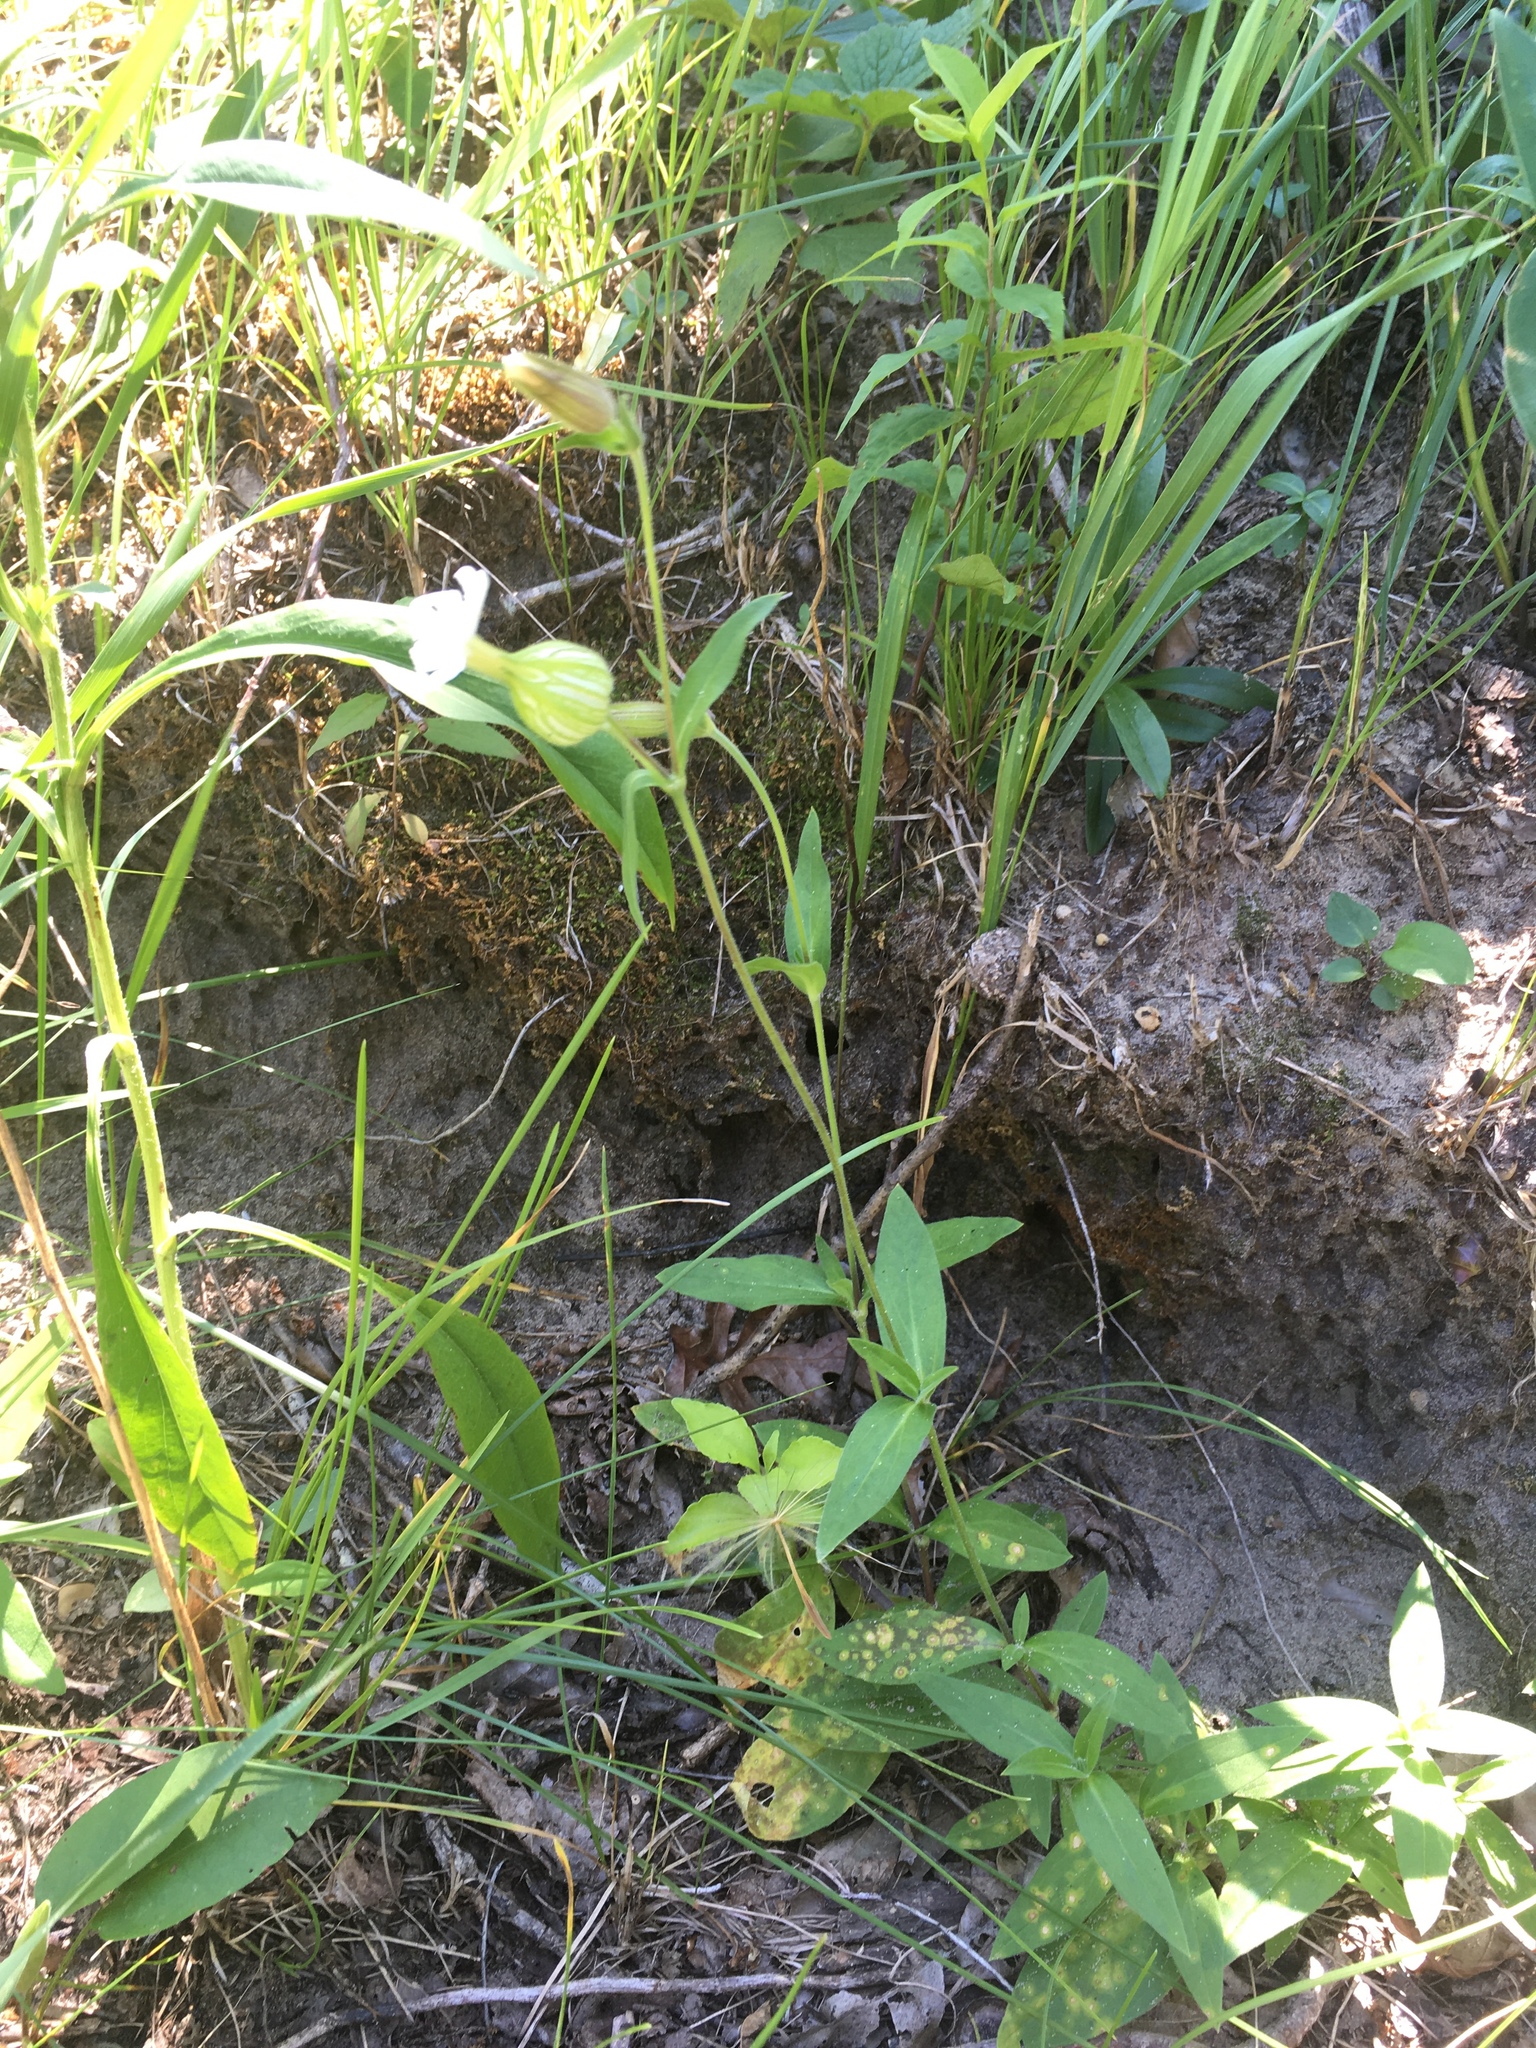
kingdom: Plantae
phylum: Tracheophyta
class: Magnoliopsida
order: Caryophyllales
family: Caryophyllaceae
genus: Silene
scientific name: Silene latifolia
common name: White campion
